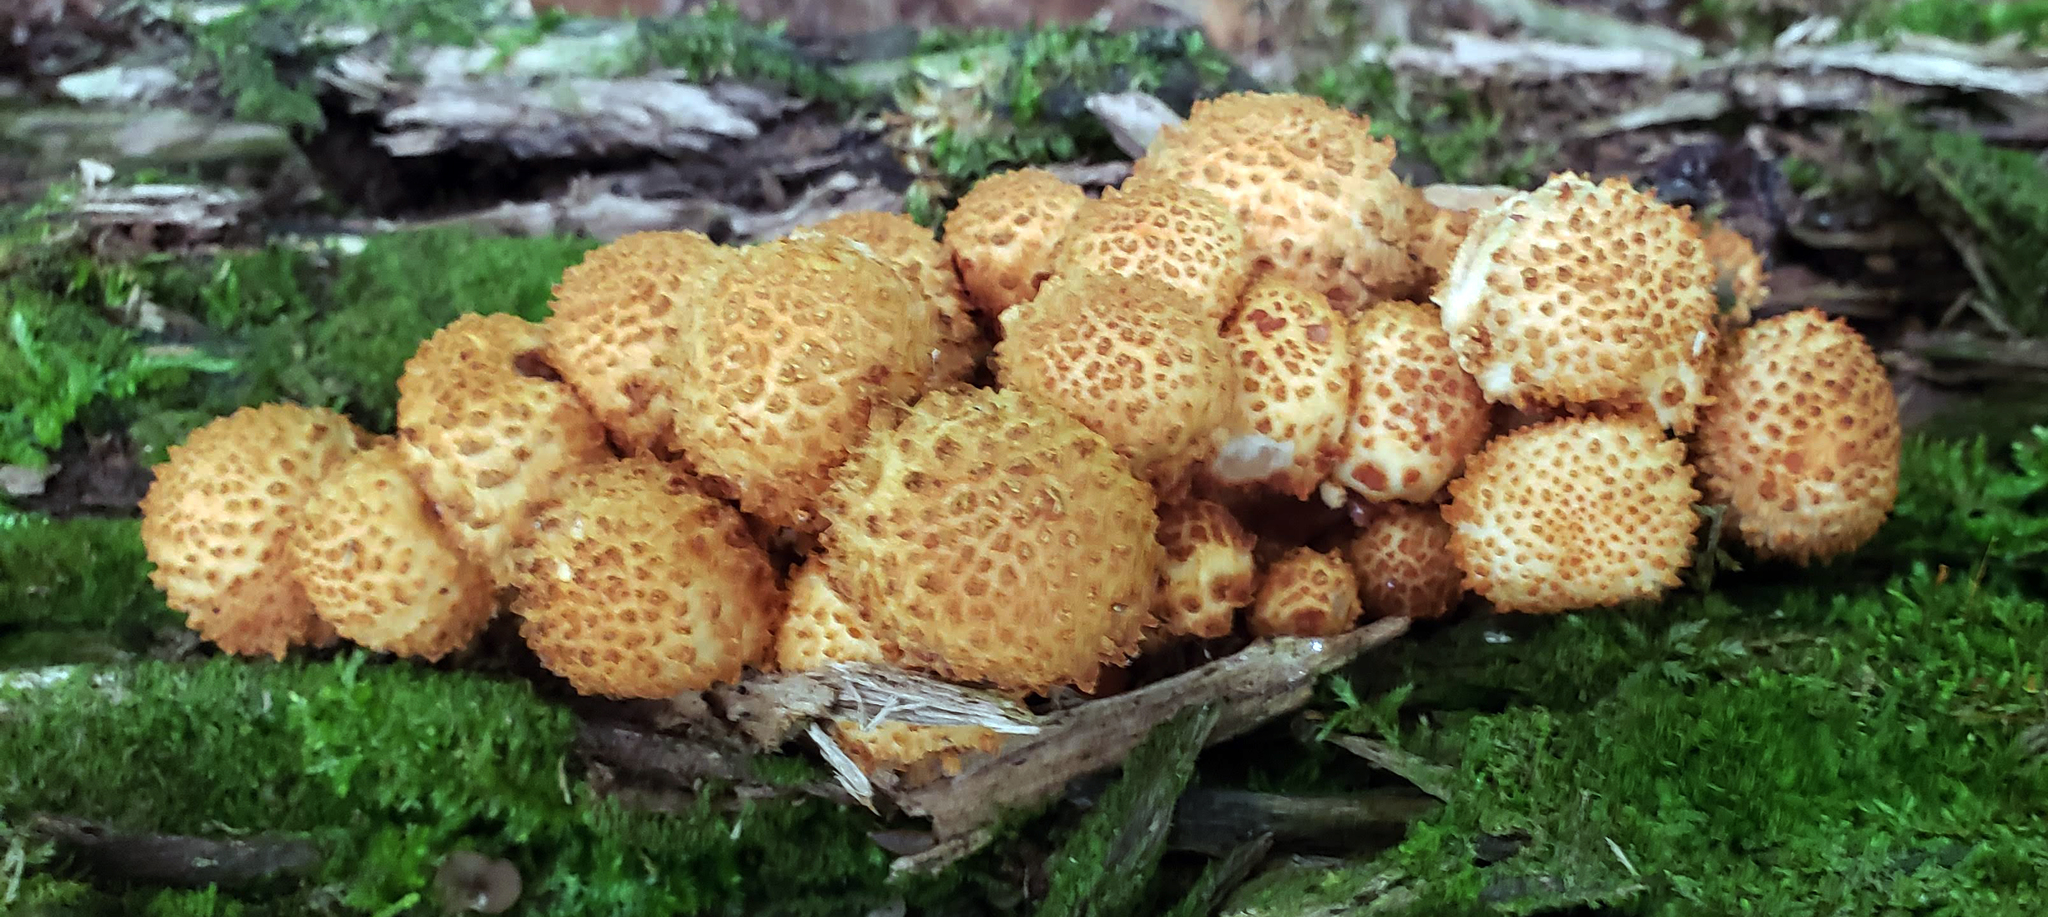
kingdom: Fungi
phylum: Basidiomycota
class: Agaricomycetes
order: Agaricales
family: Strophariaceae
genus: Pholiota
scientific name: Pholiota squarrosoides
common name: Sharp-scaly pholiota
